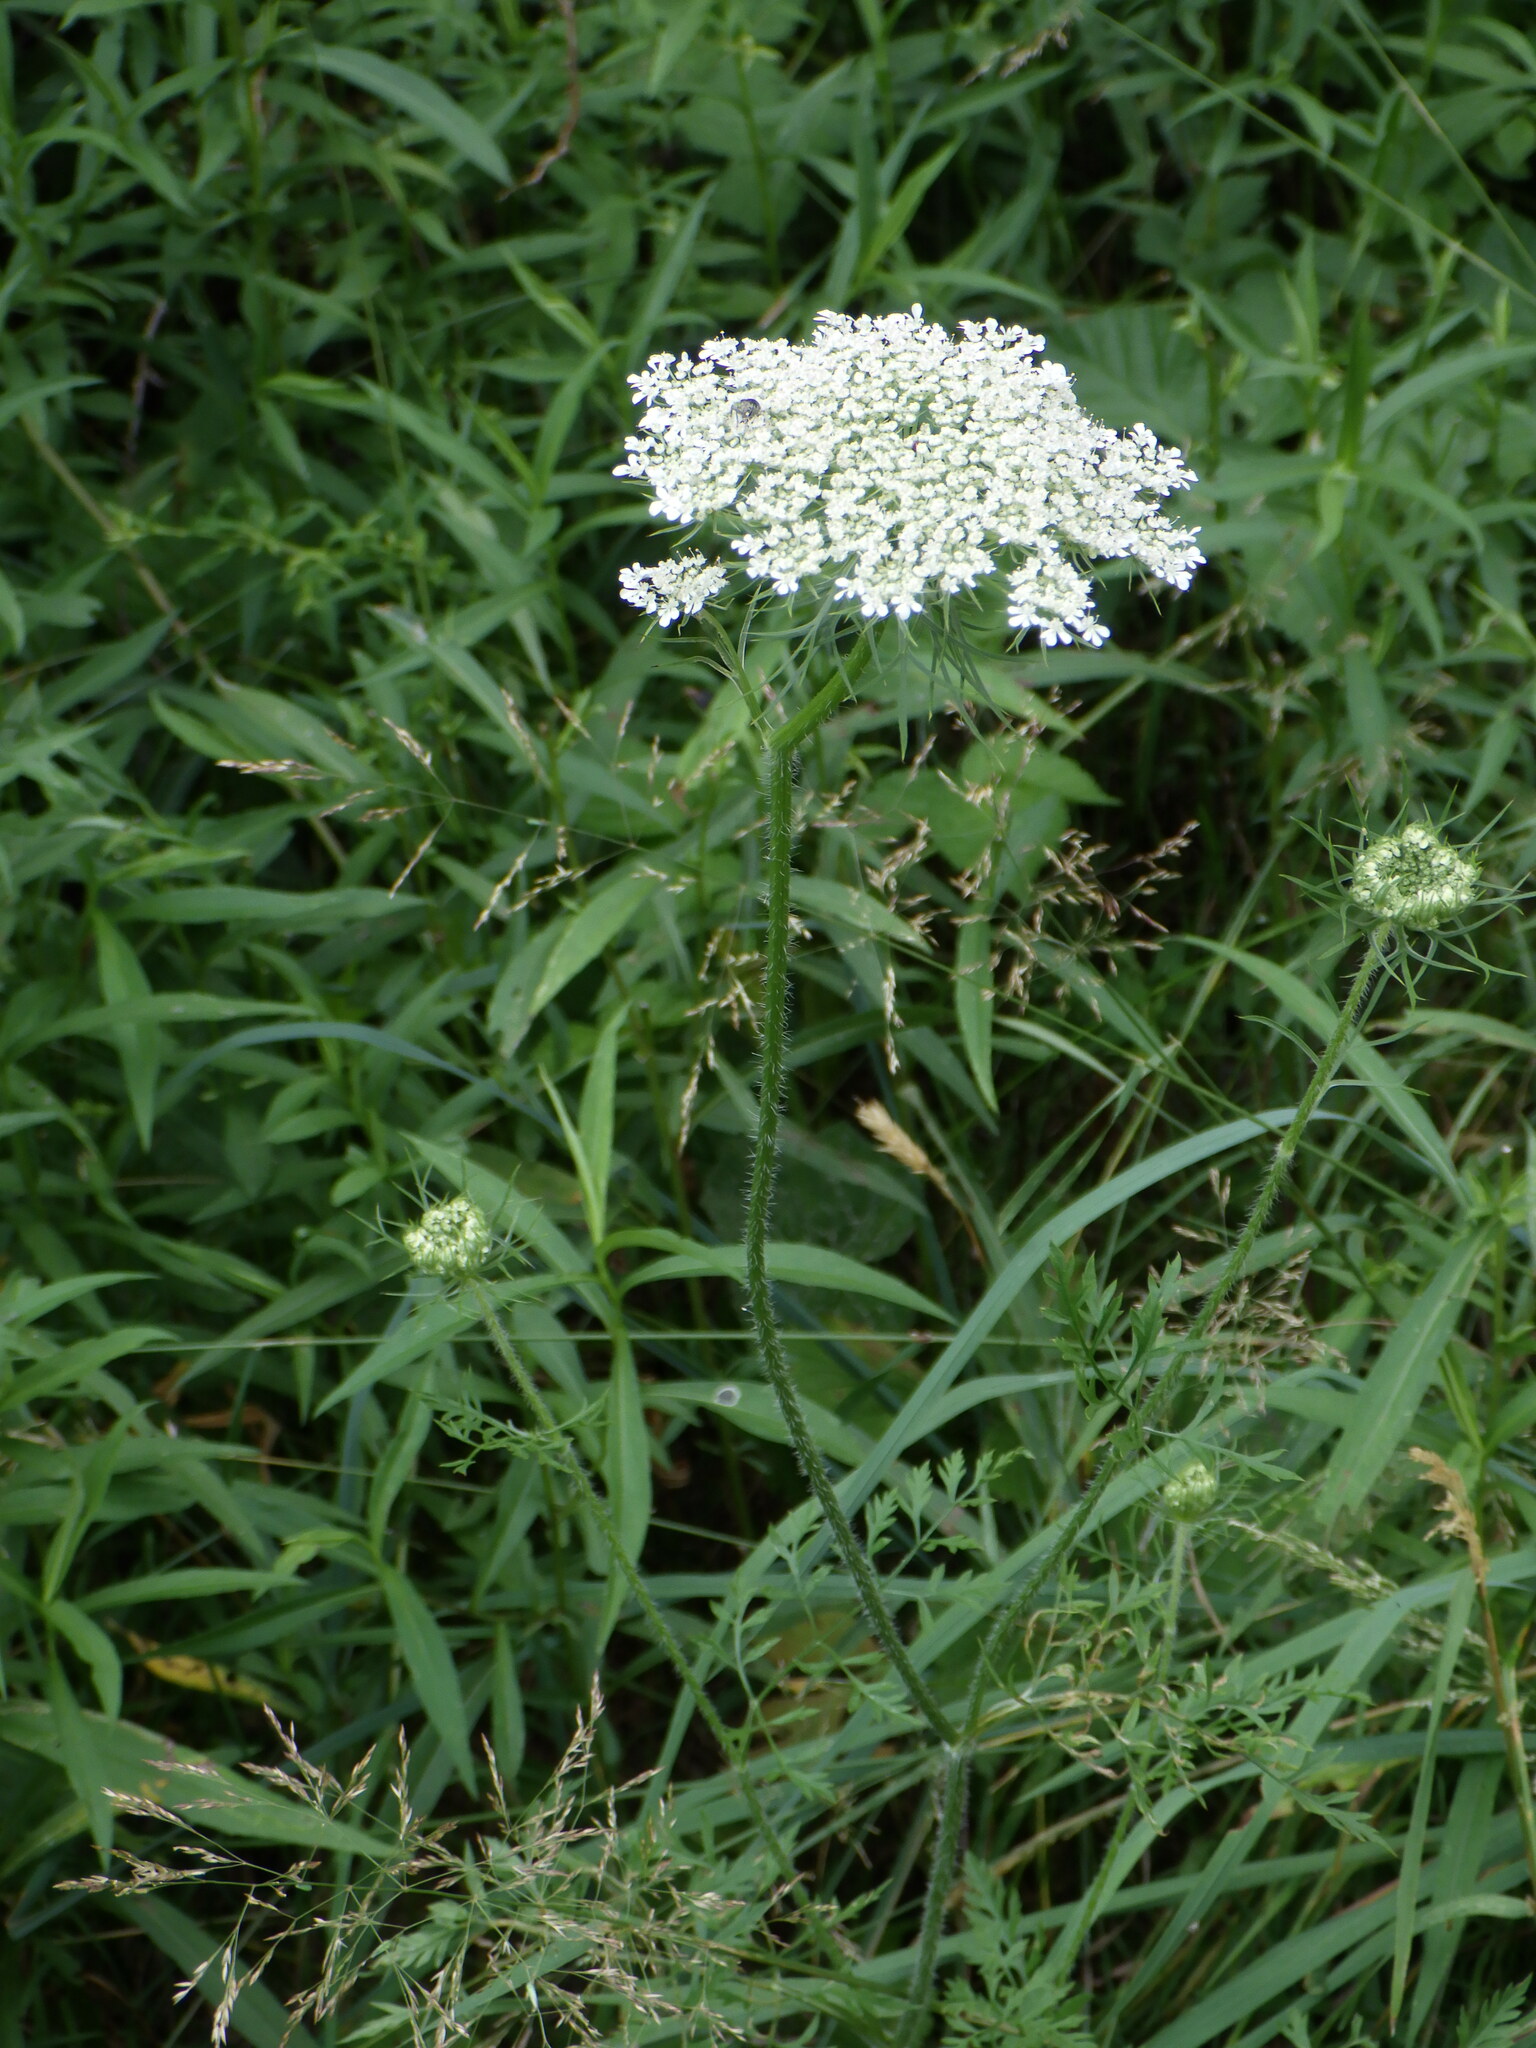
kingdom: Plantae
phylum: Tracheophyta
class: Magnoliopsida
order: Apiales
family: Apiaceae
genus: Daucus
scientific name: Daucus carota
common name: Wild carrot
